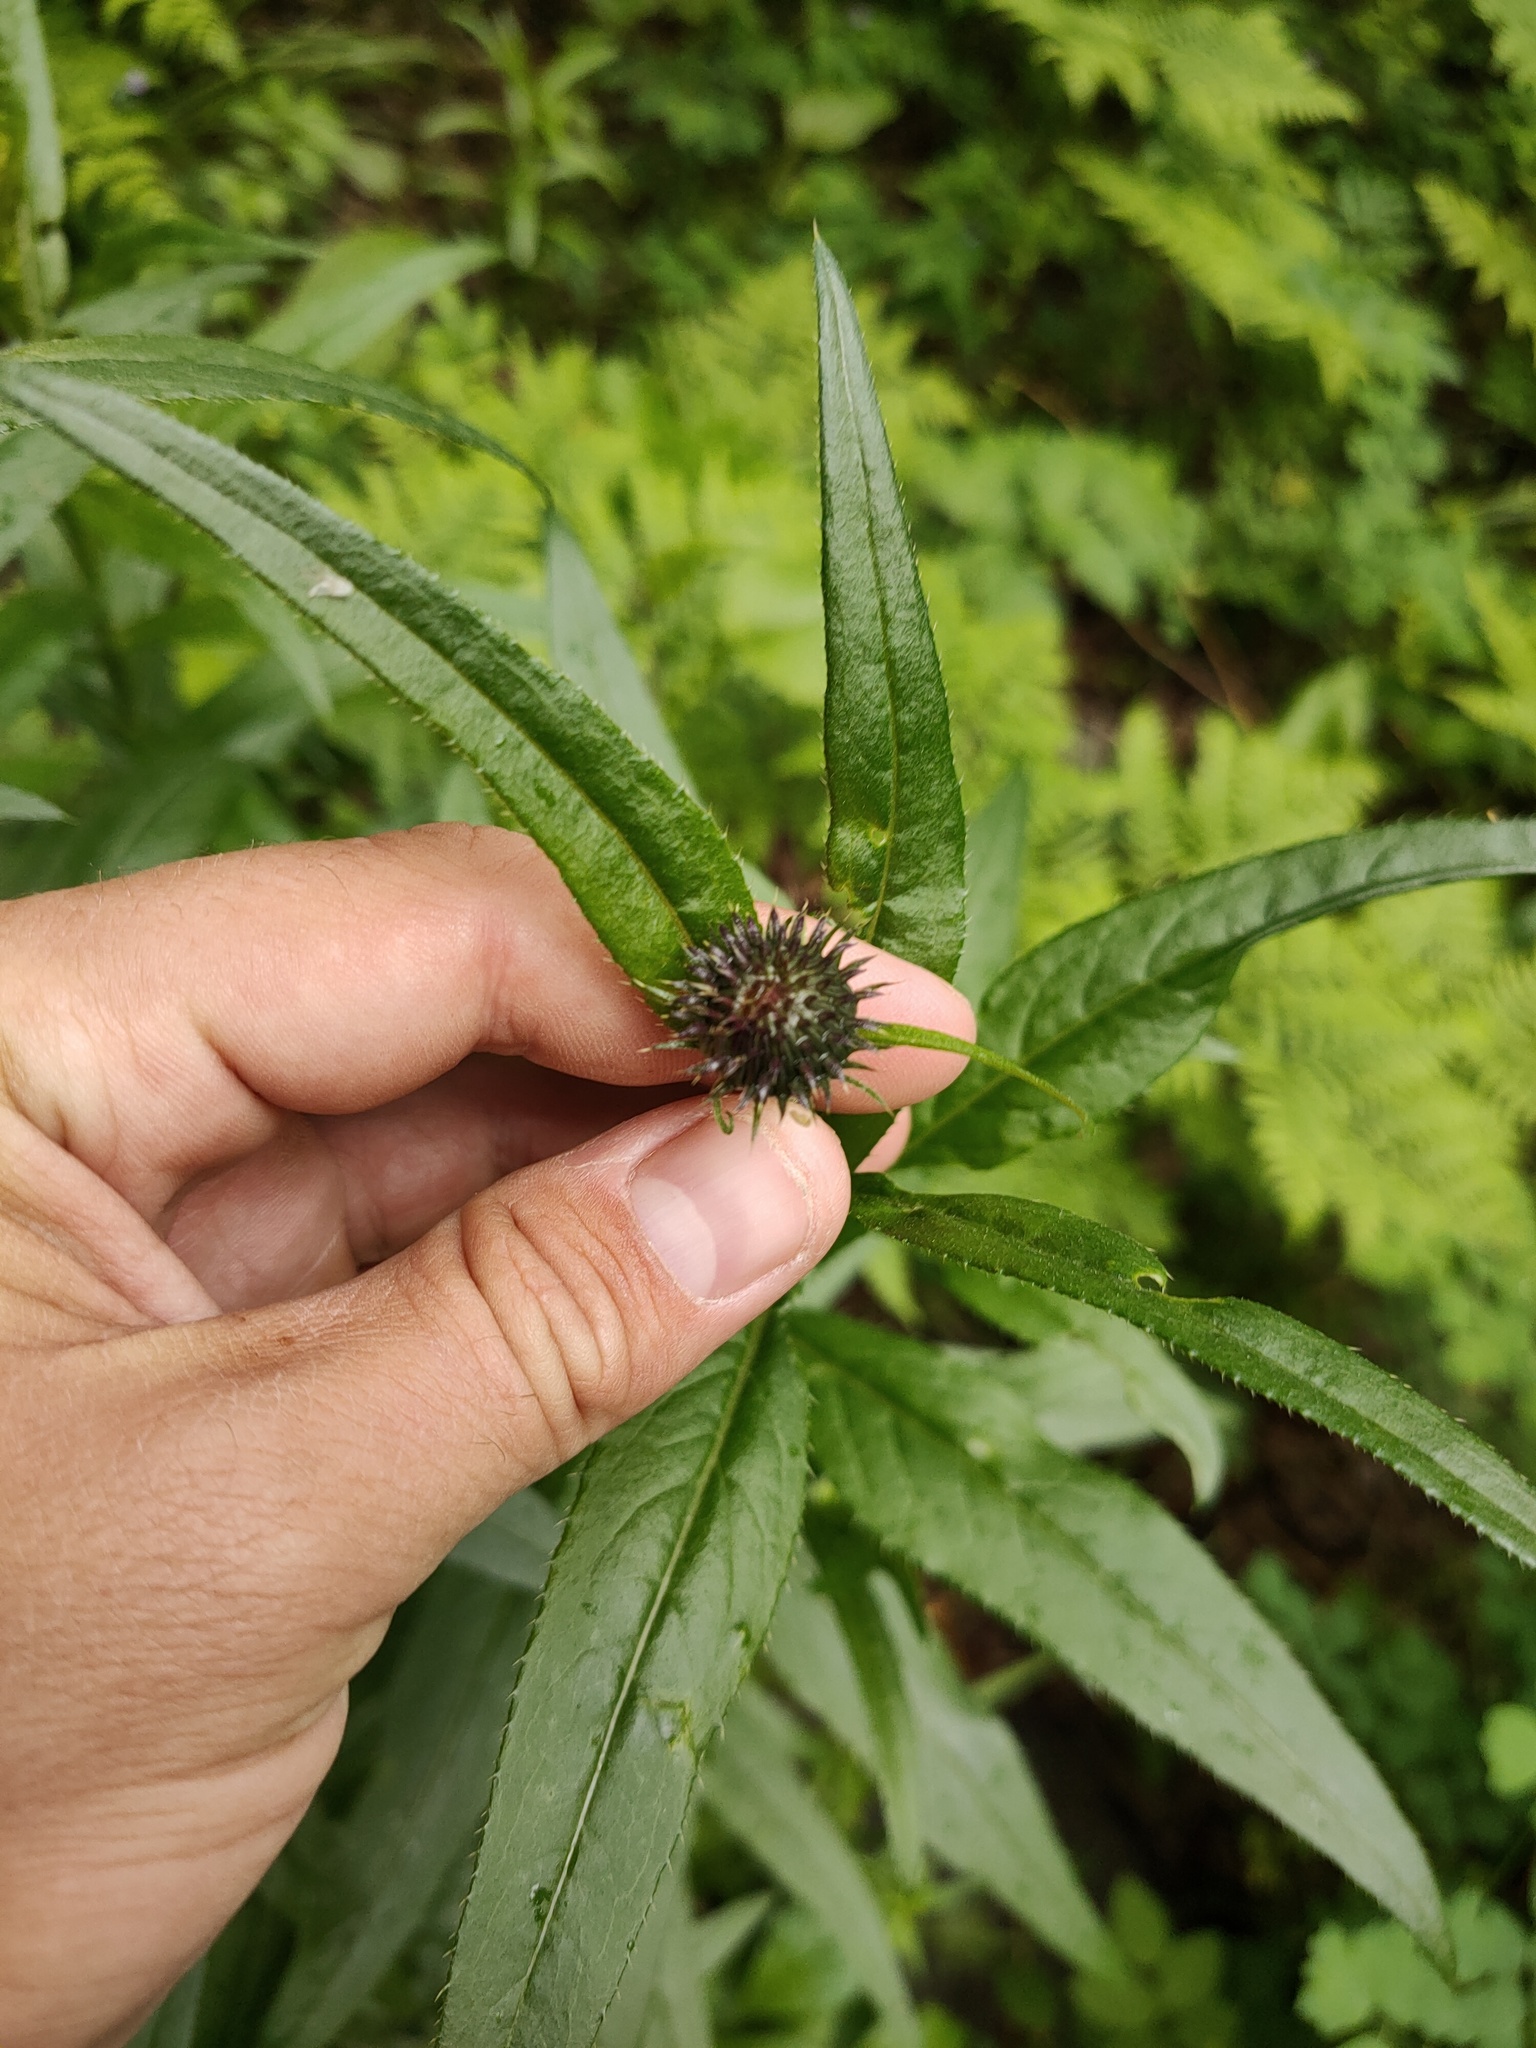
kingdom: Plantae
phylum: Tracheophyta
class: Magnoliopsida
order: Asterales
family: Asteraceae
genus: Cirsium
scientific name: Cirsium serratuloides
